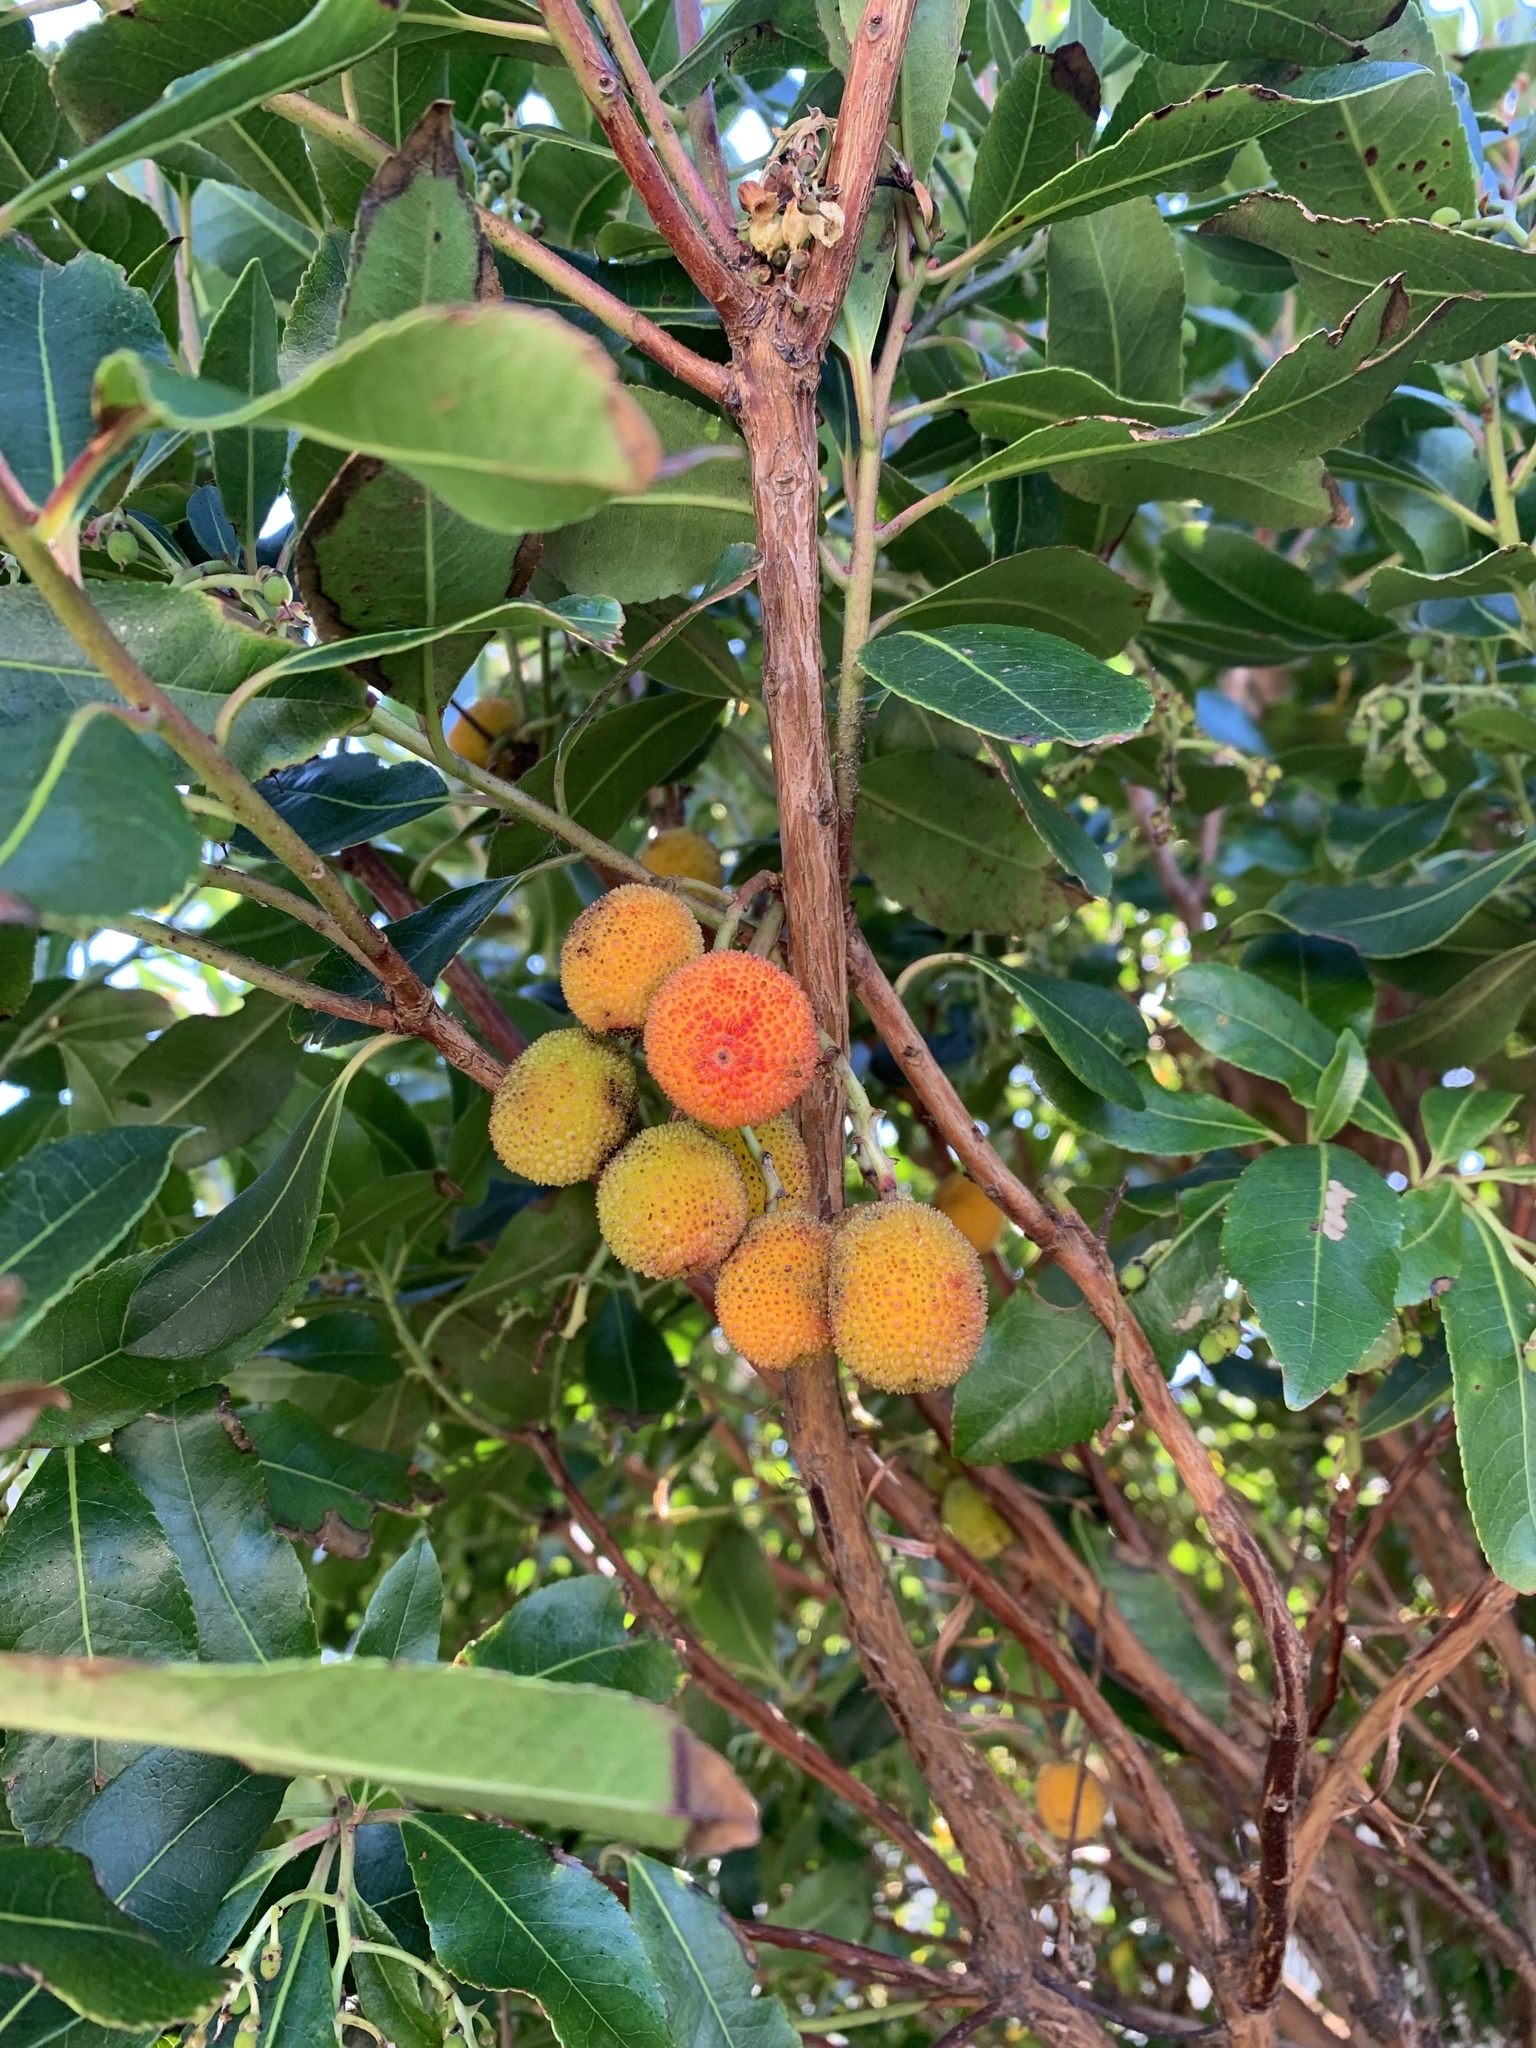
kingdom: Plantae
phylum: Tracheophyta
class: Magnoliopsida
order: Ericales
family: Ericaceae
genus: Arbutus
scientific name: Arbutus unedo
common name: Strawberry-tree
